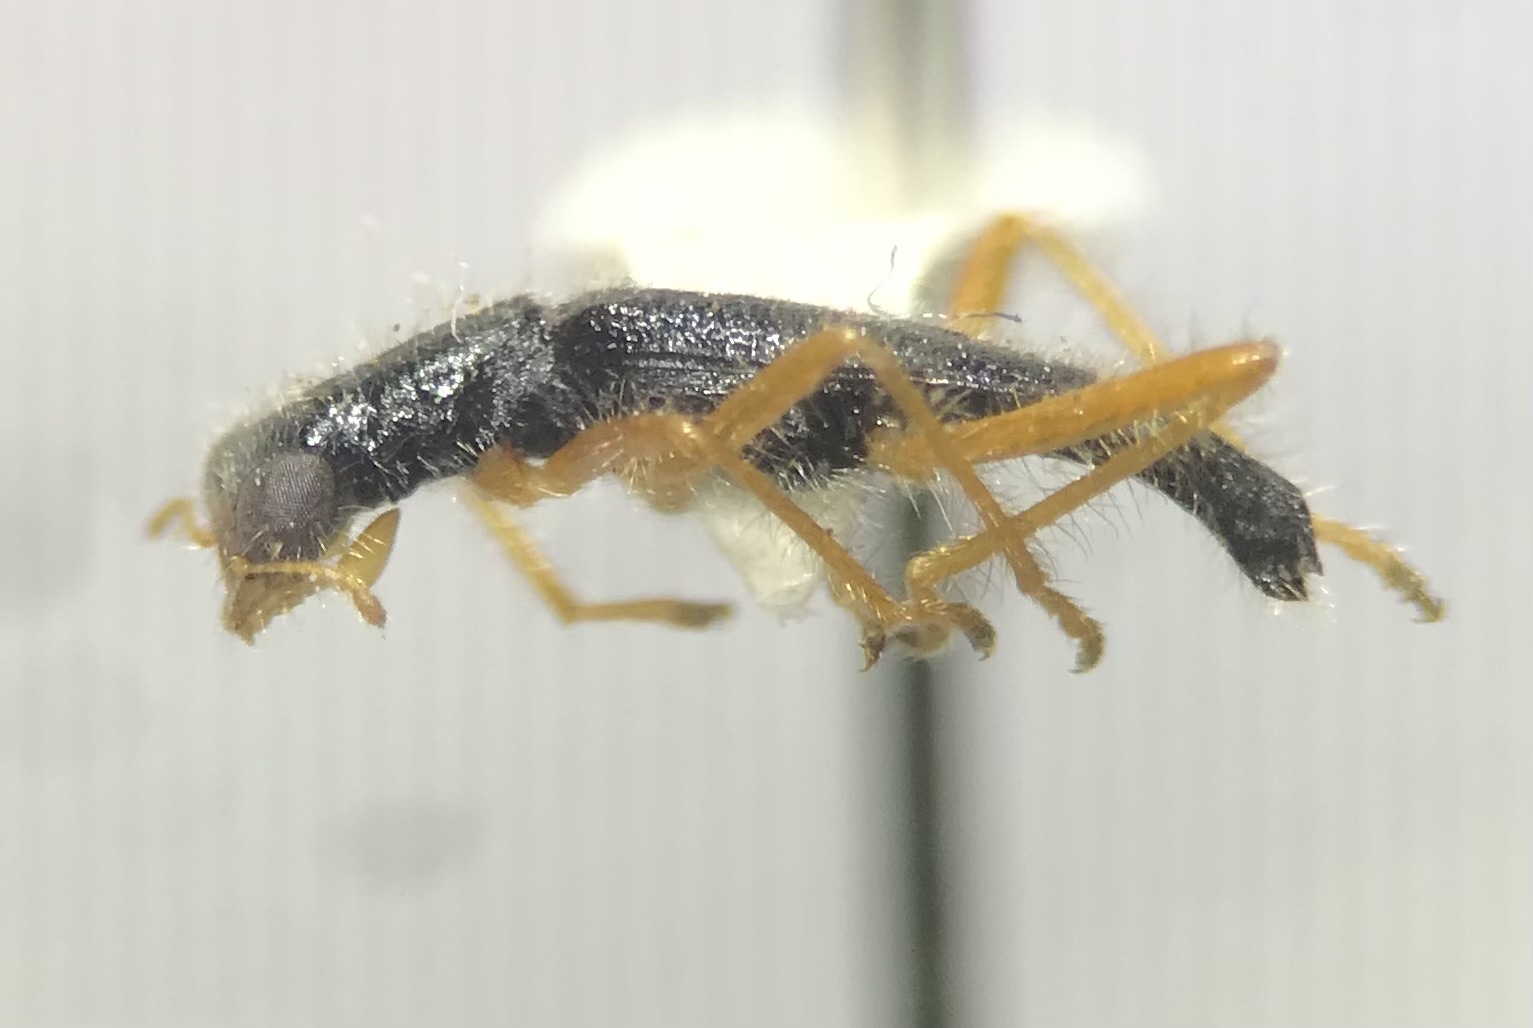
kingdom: Animalia
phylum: Arthropoda
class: Insecta
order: Coleoptera
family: Cleridae
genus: Isohydnocera
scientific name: Isohydnocera tabida
